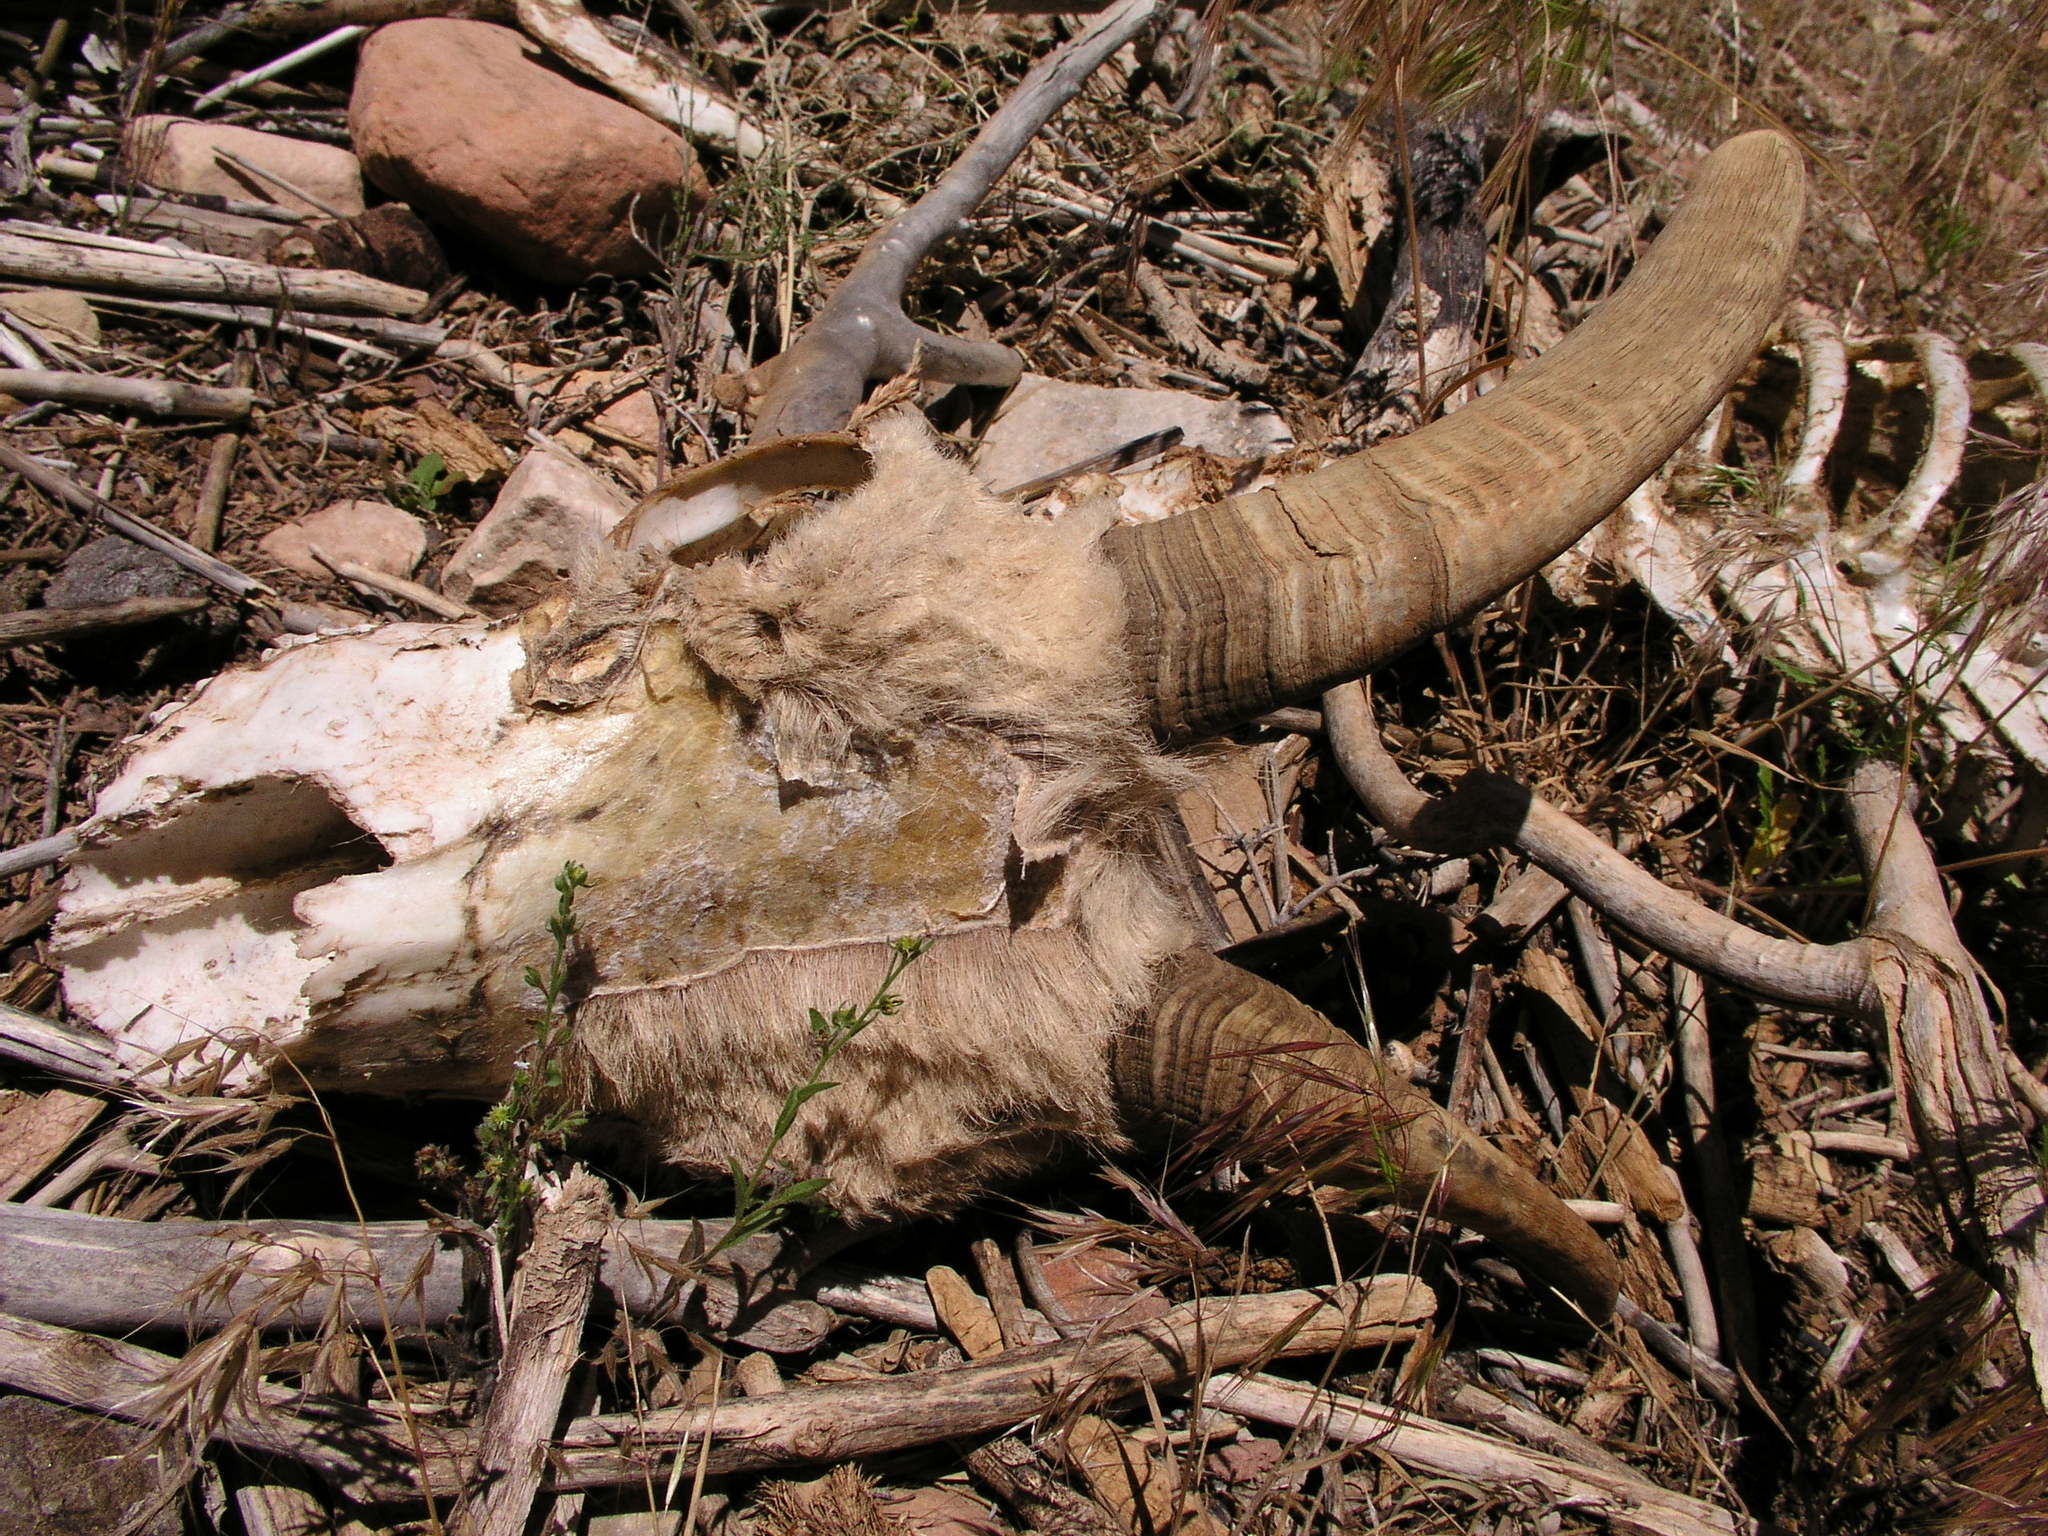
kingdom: Animalia
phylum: Chordata
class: Mammalia
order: Artiodactyla
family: Bovidae
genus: Ovis
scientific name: Ovis canadensis
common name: Bighorn sheep
